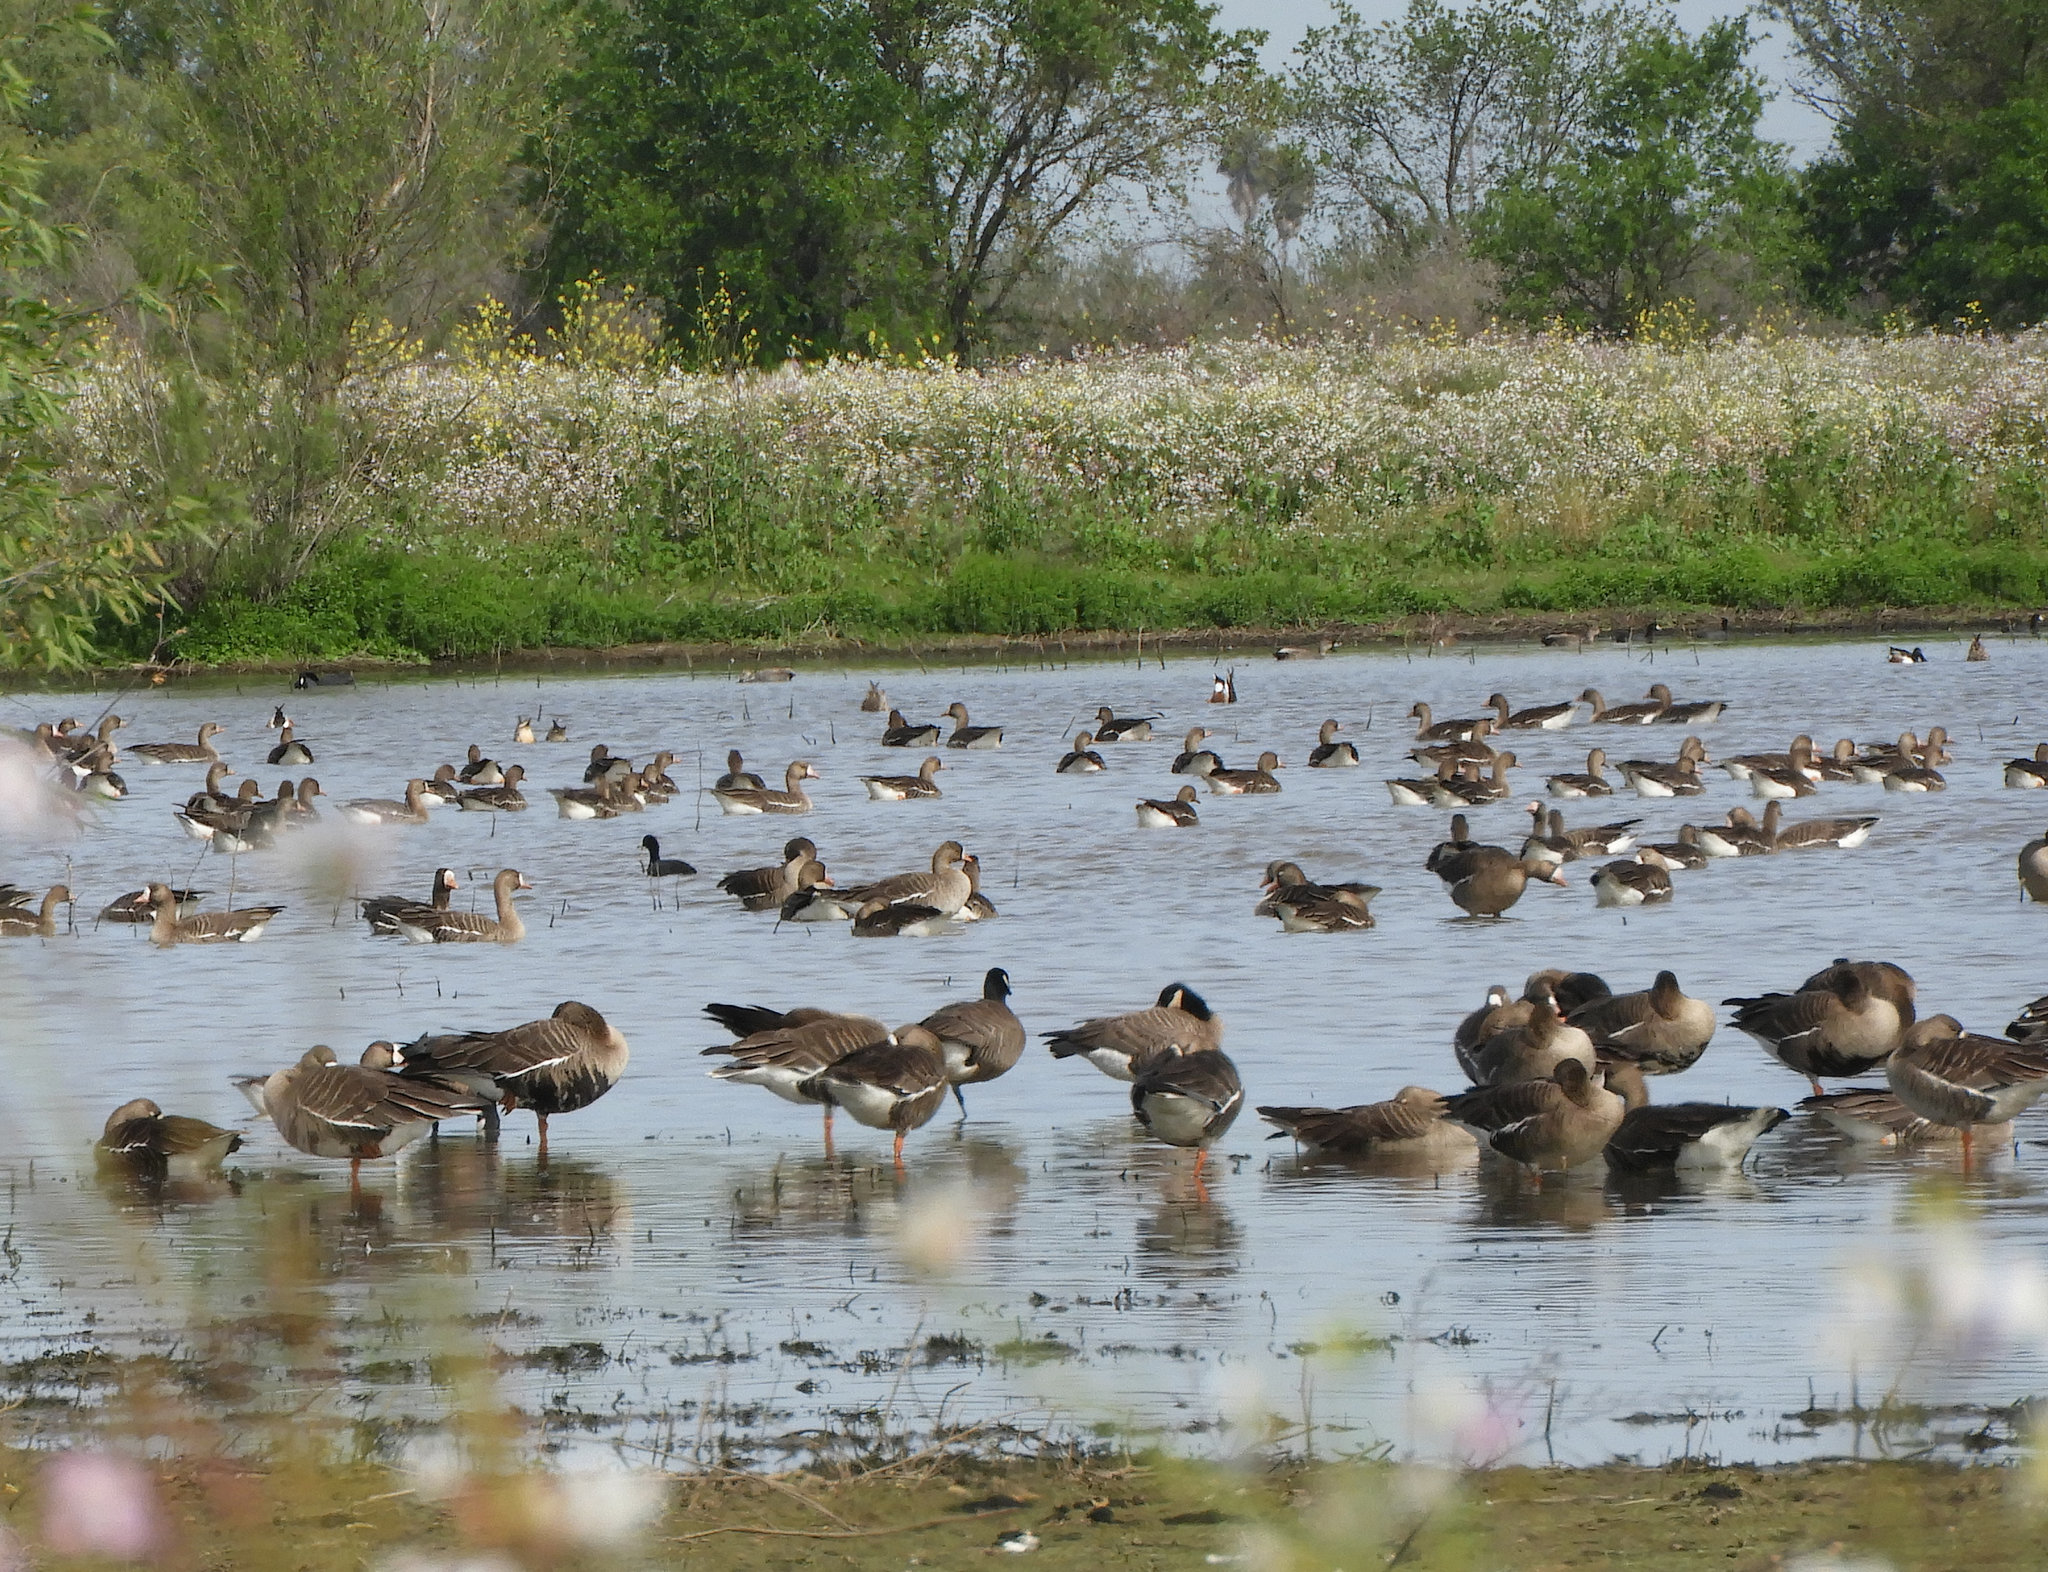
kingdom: Animalia
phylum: Chordata
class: Aves
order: Anseriformes
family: Anatidae
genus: Anser
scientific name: Anser albifrons
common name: Greater white-fronted goose
